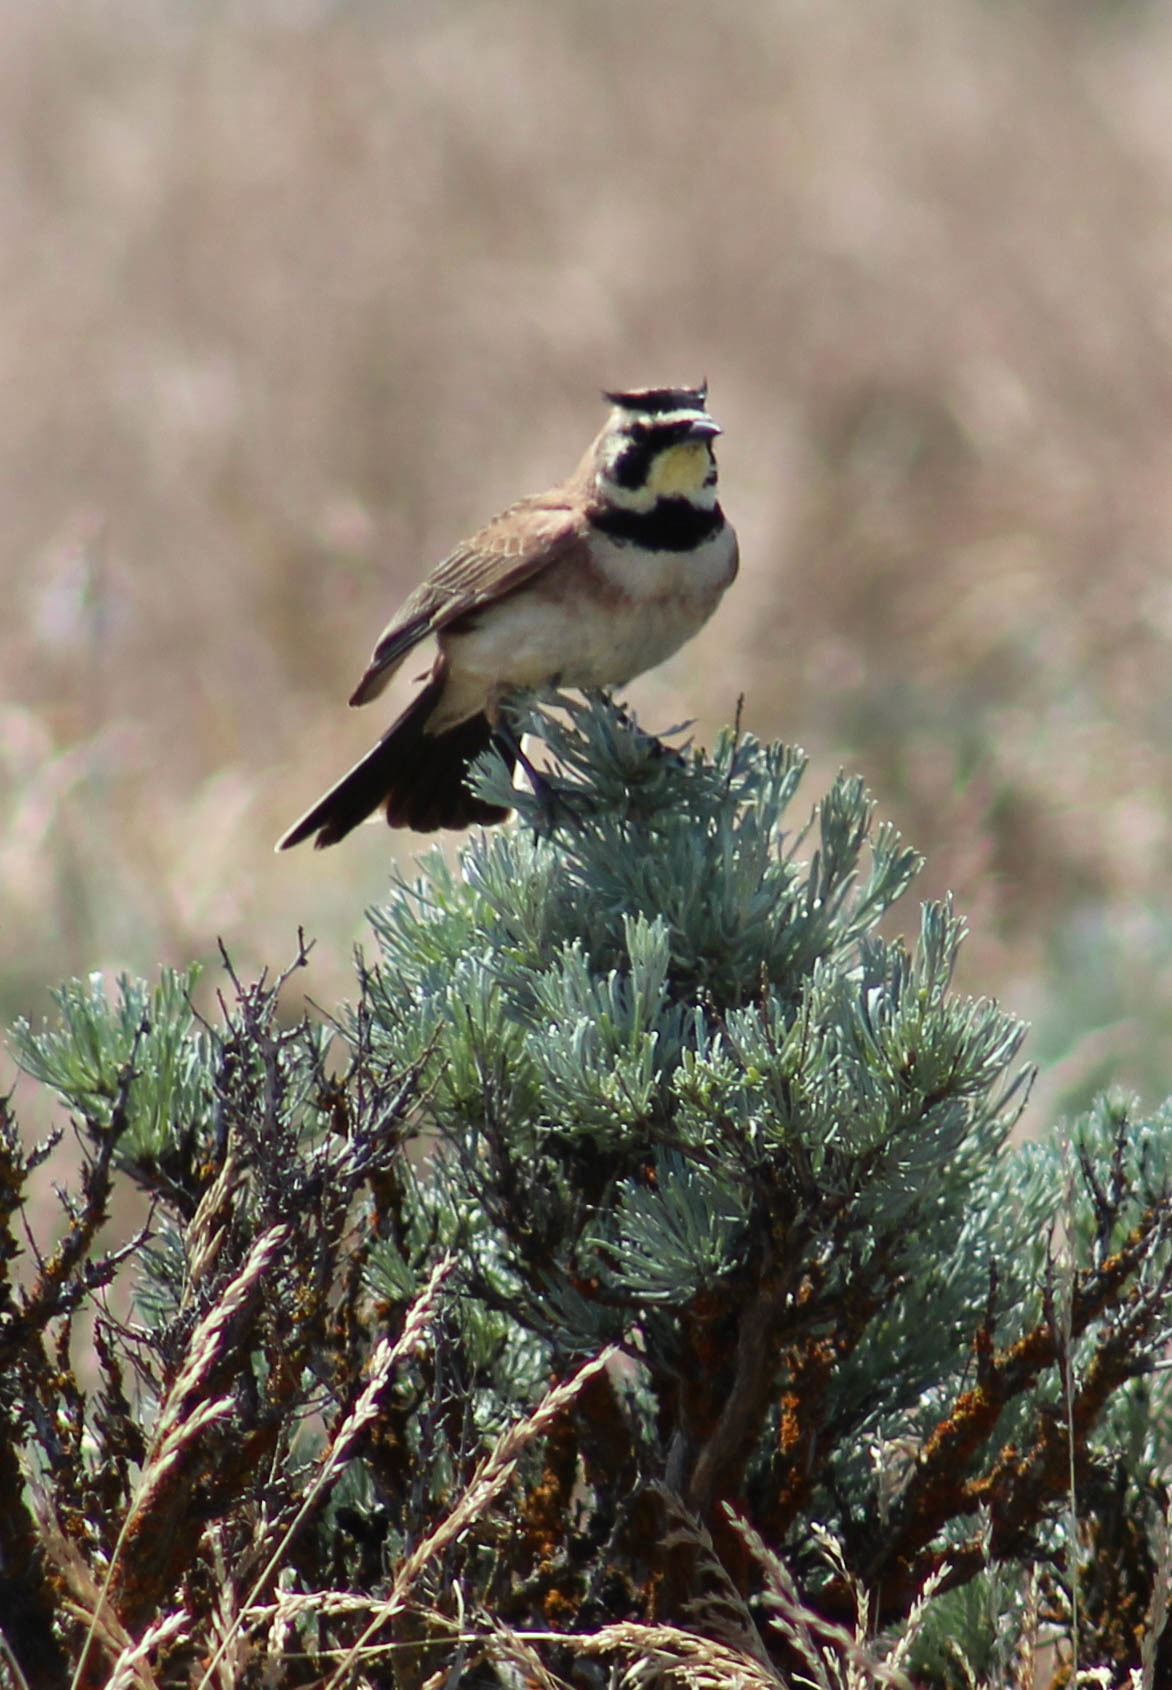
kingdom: Animalia
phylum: Chordata
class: Aves
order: Passeriformes
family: Alaudidae
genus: Eremophila
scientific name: Eremophila alpestris
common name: Horned lark
